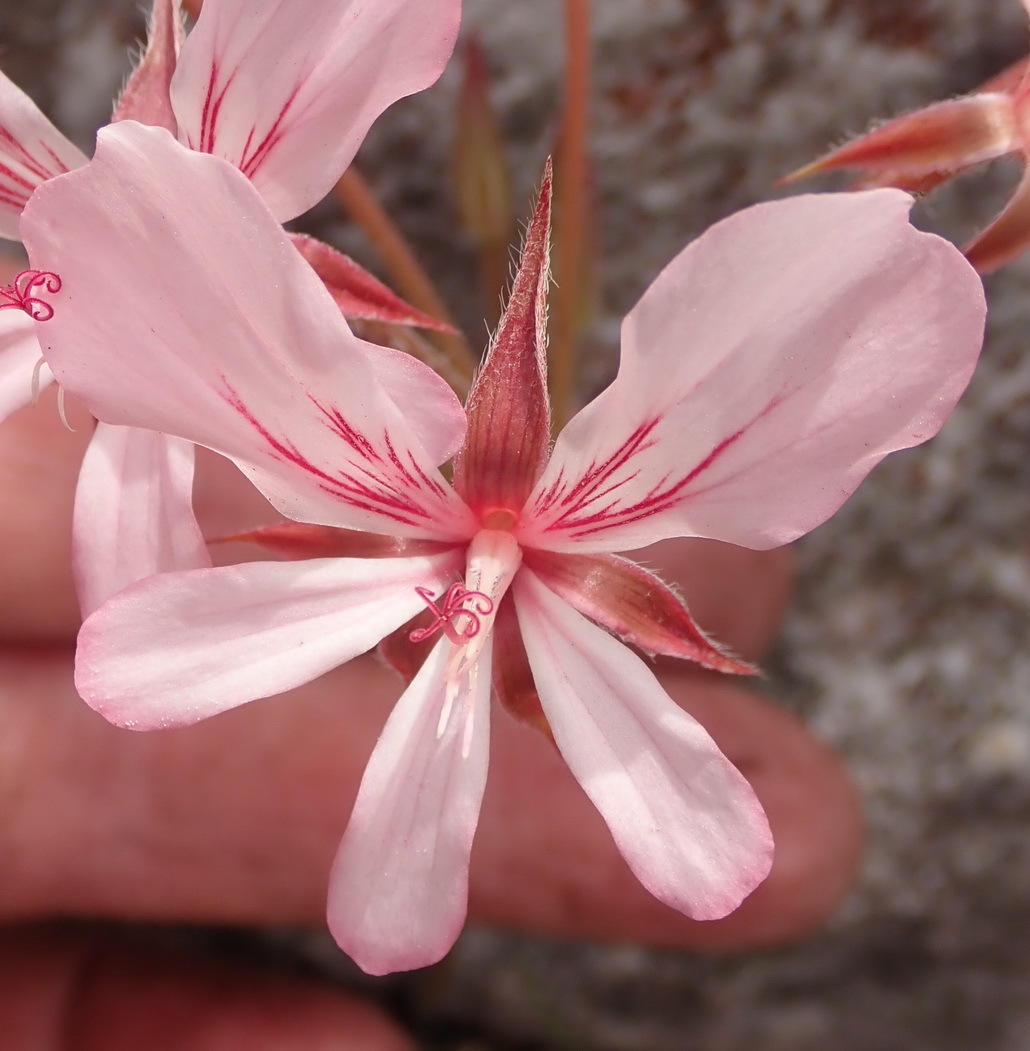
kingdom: Plantae
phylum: Tracheophyta
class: Magnoliopsida
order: Geraniales
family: Geraniaceae
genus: Pelargonium
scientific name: Pelargonium carneum
